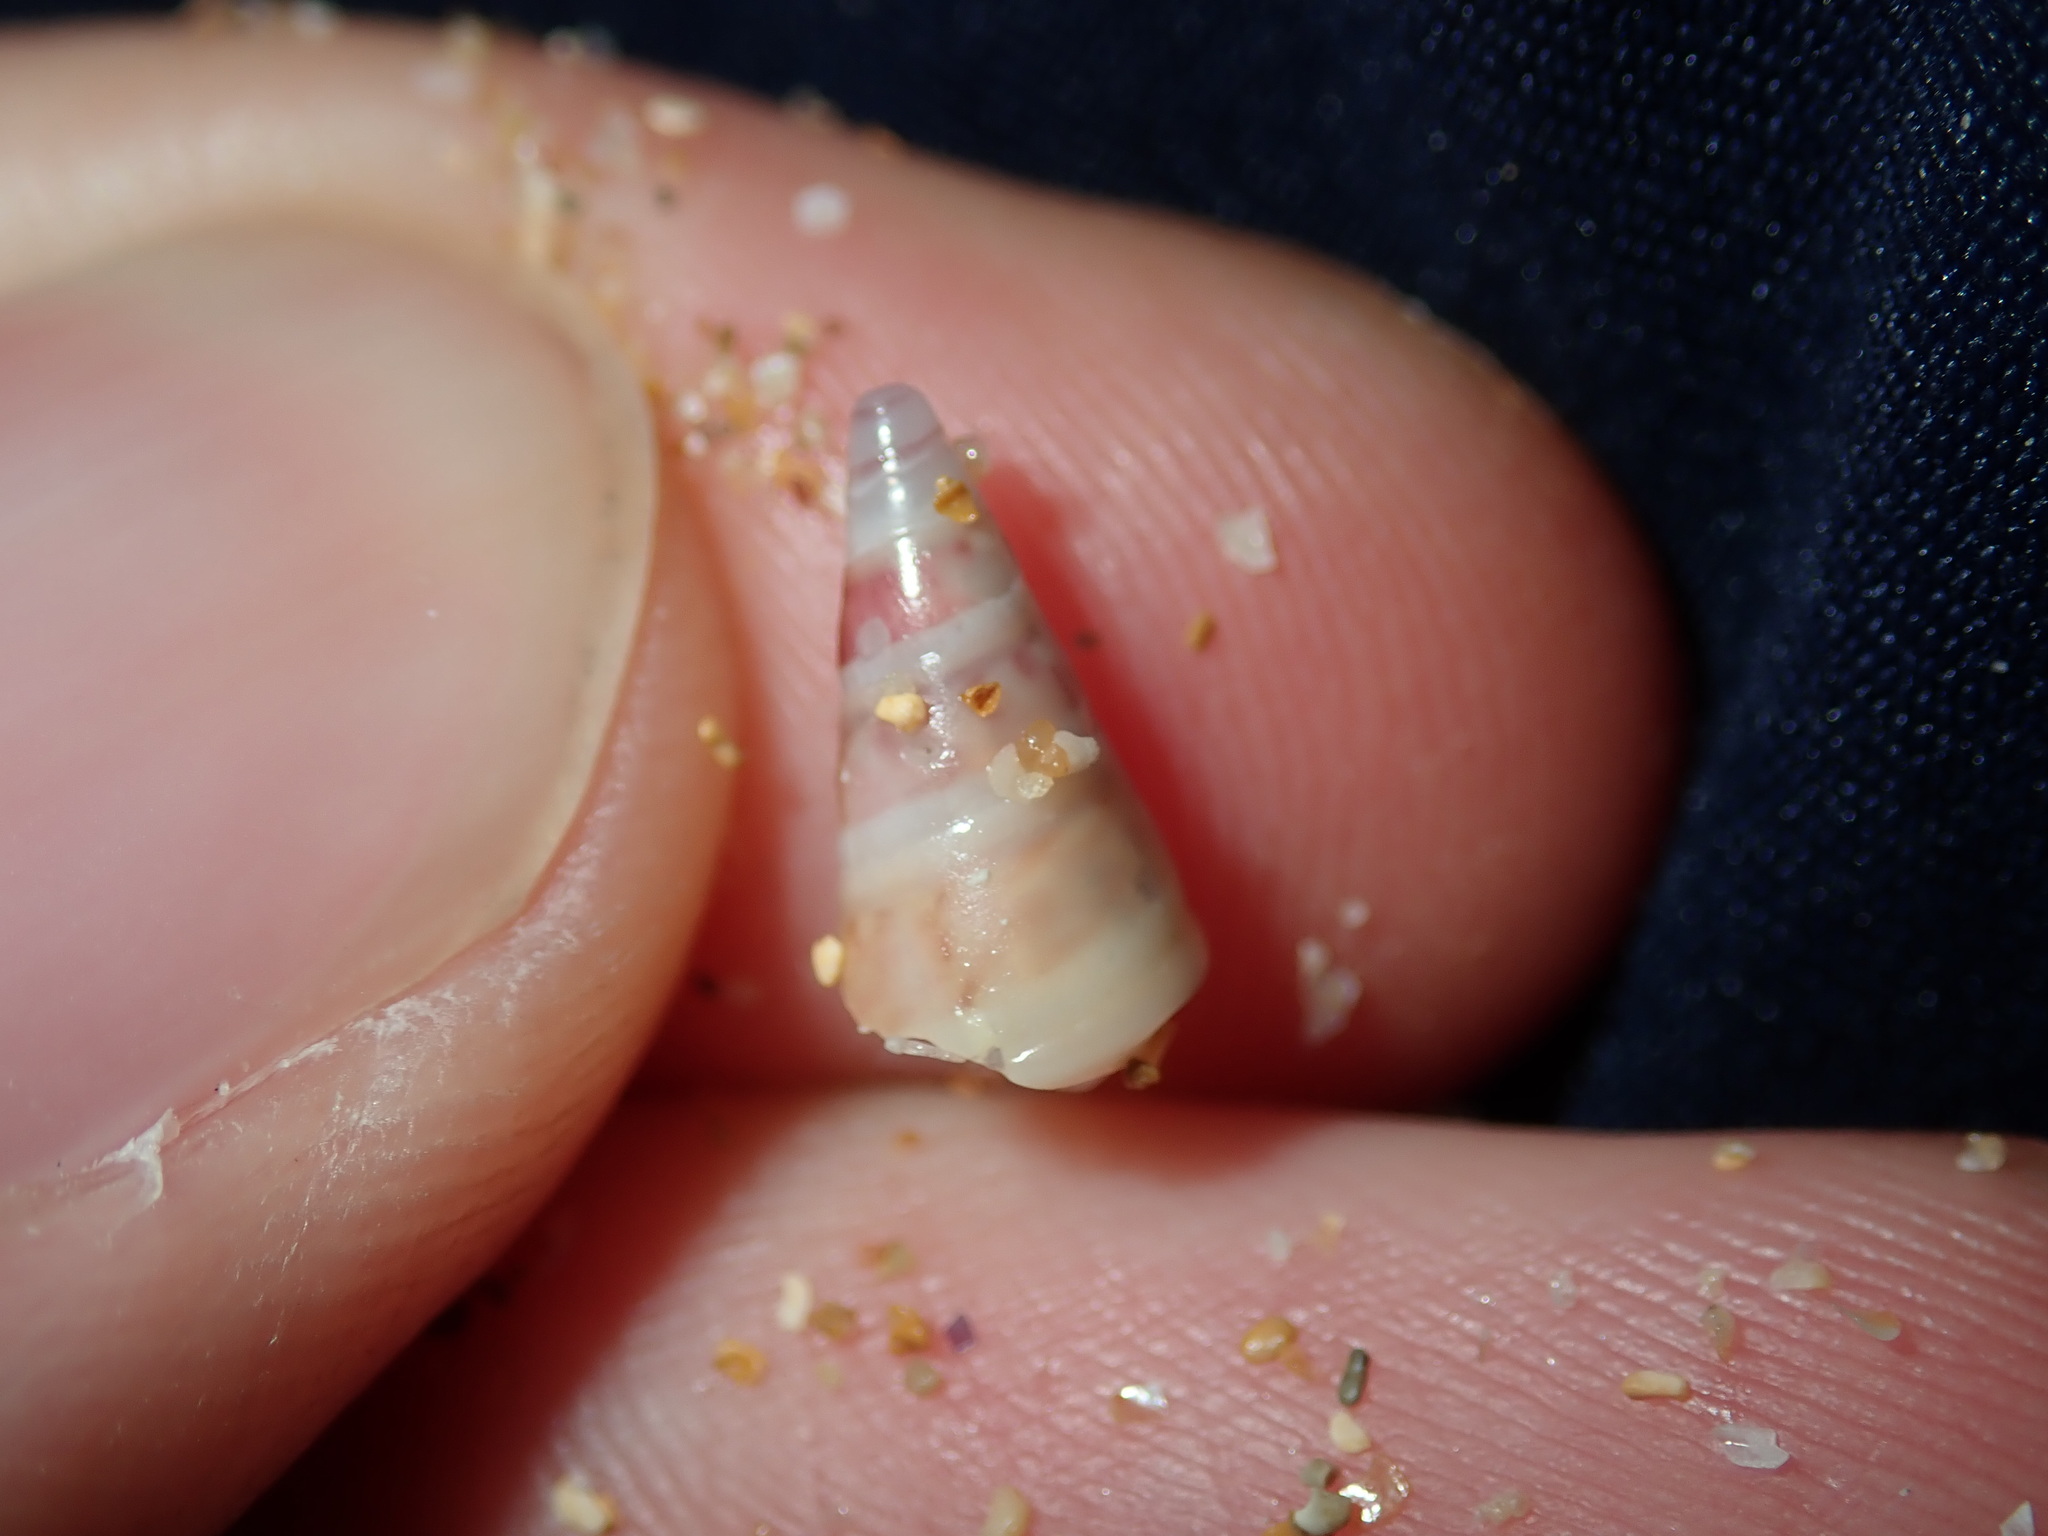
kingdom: Animalia
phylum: Mollusca
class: Gastropoda
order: Trochida
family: Trochidae
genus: Bankivia
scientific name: Bankivia fasciata
